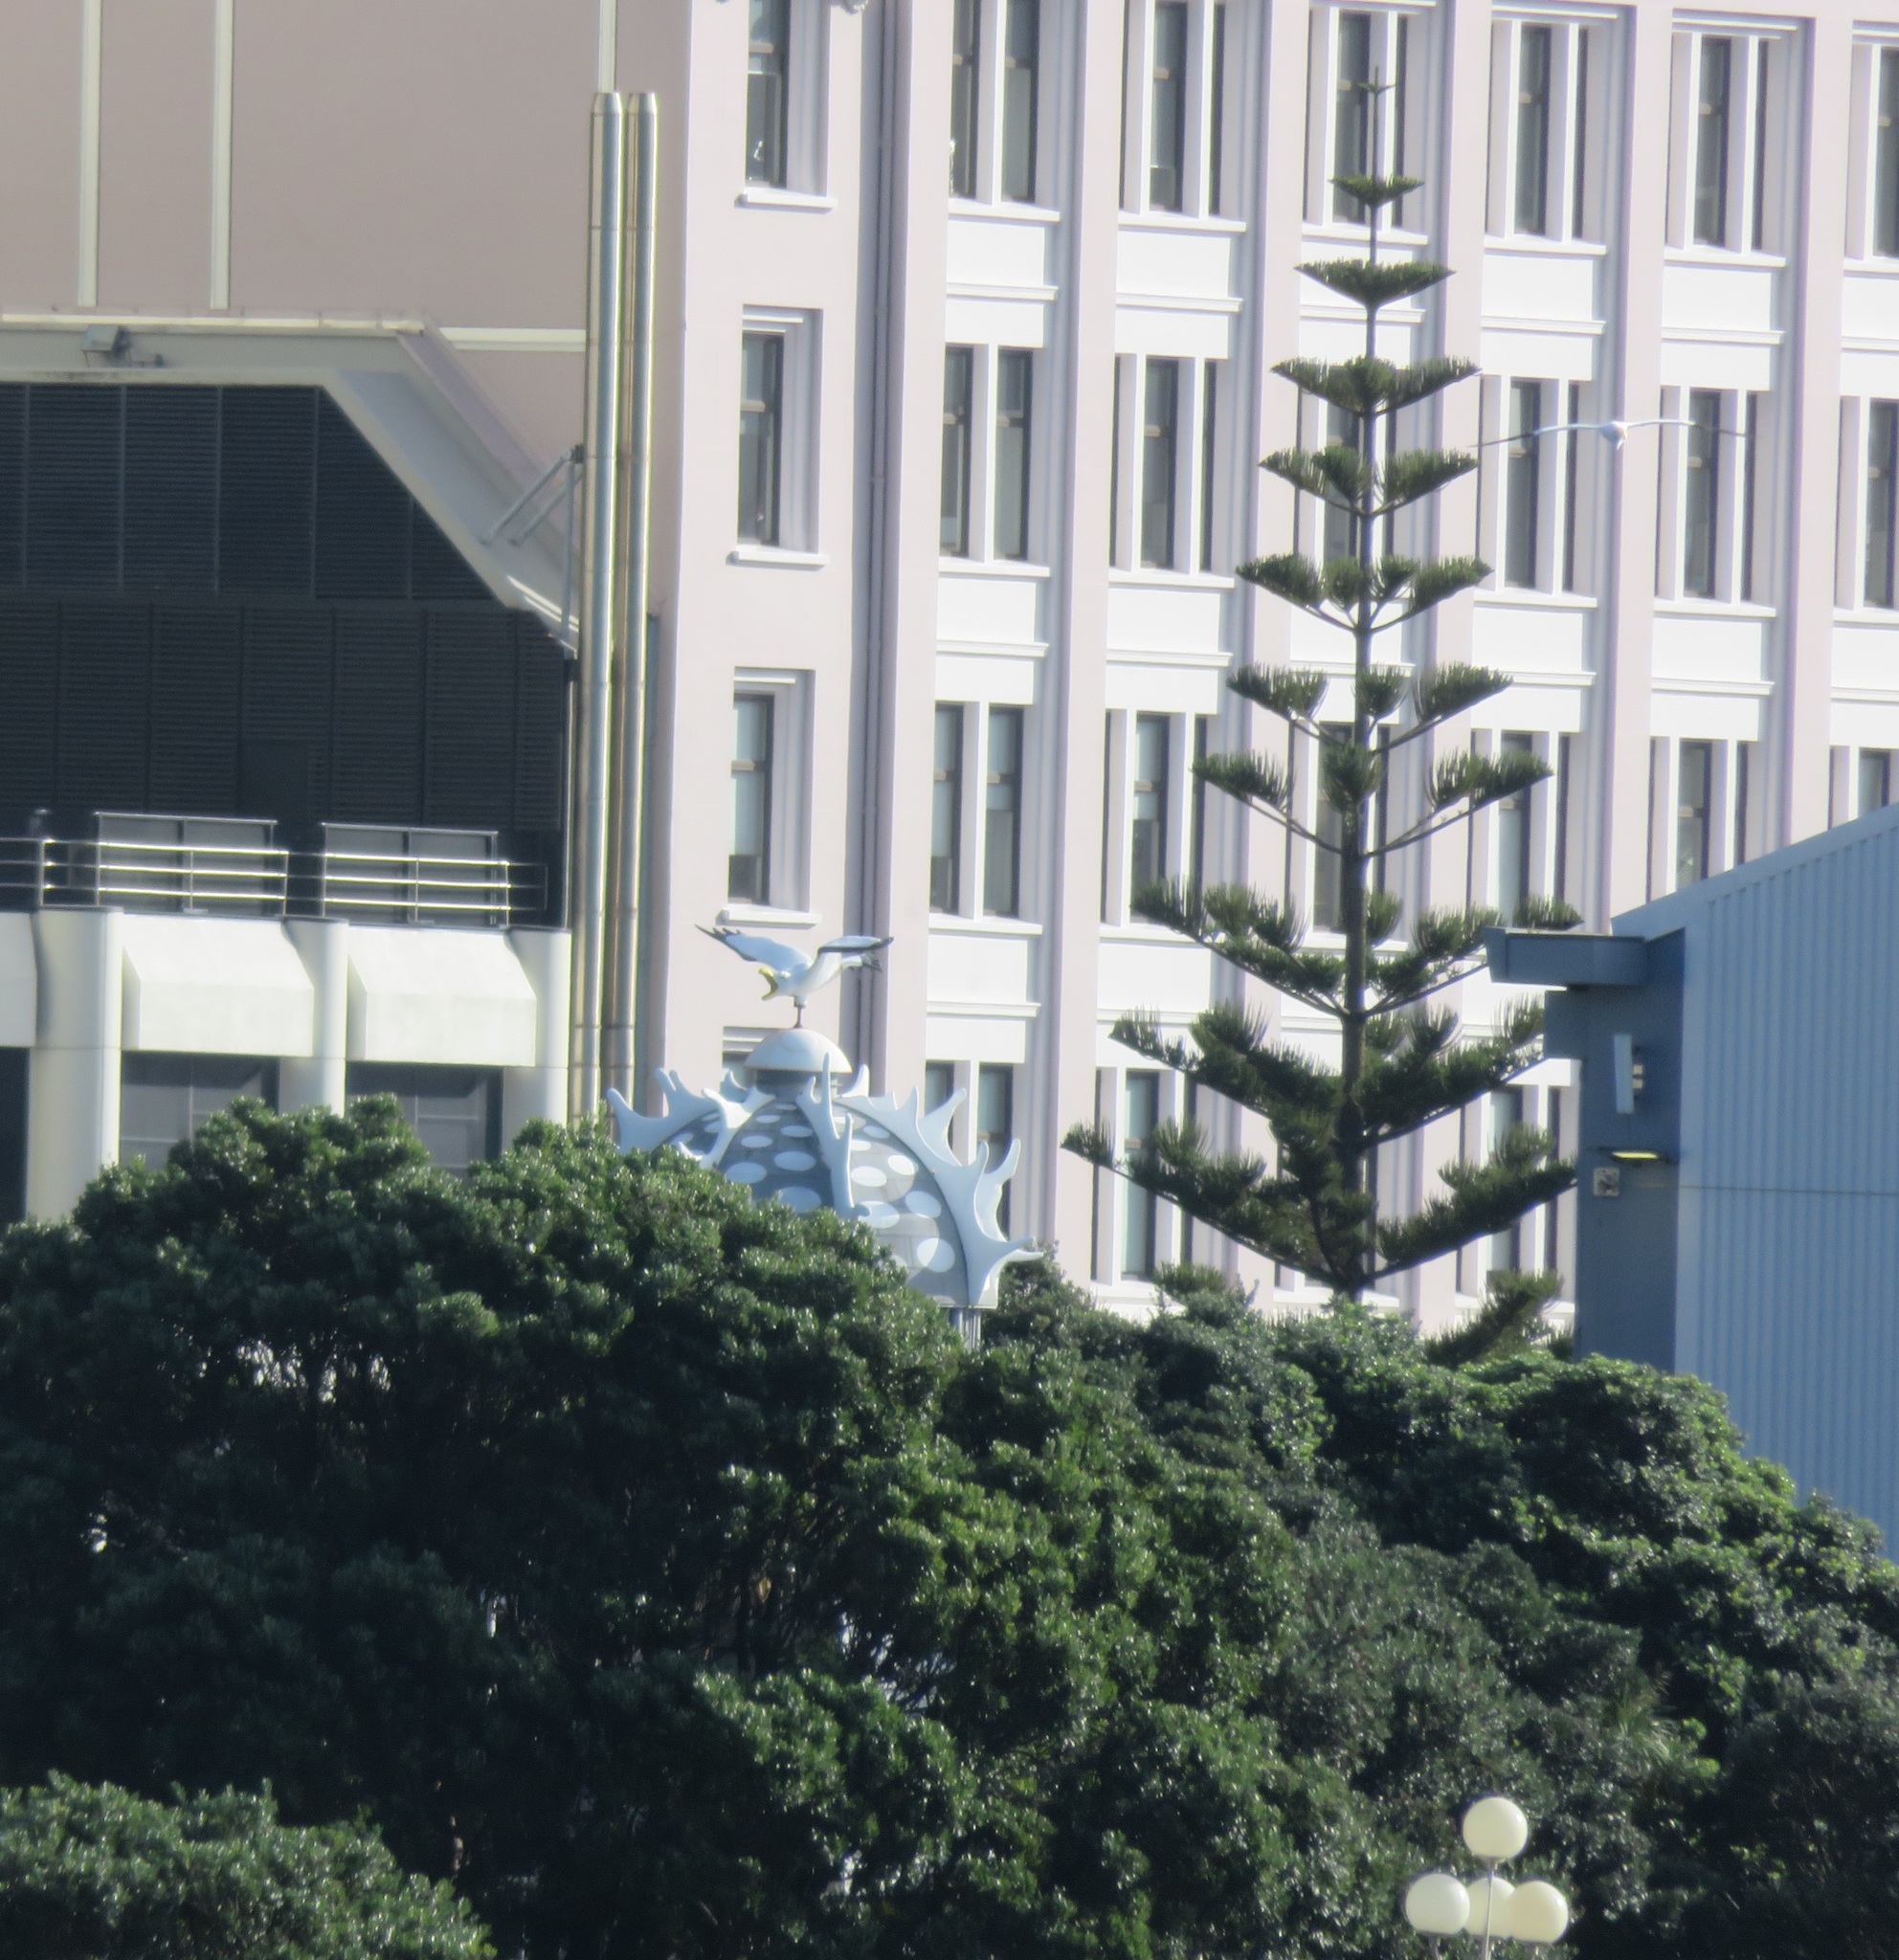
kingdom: Animalia
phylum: Chordata
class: Aves
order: Suliformes
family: Sulidae
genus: Morus
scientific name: Morus serrator
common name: Australasian gannet
